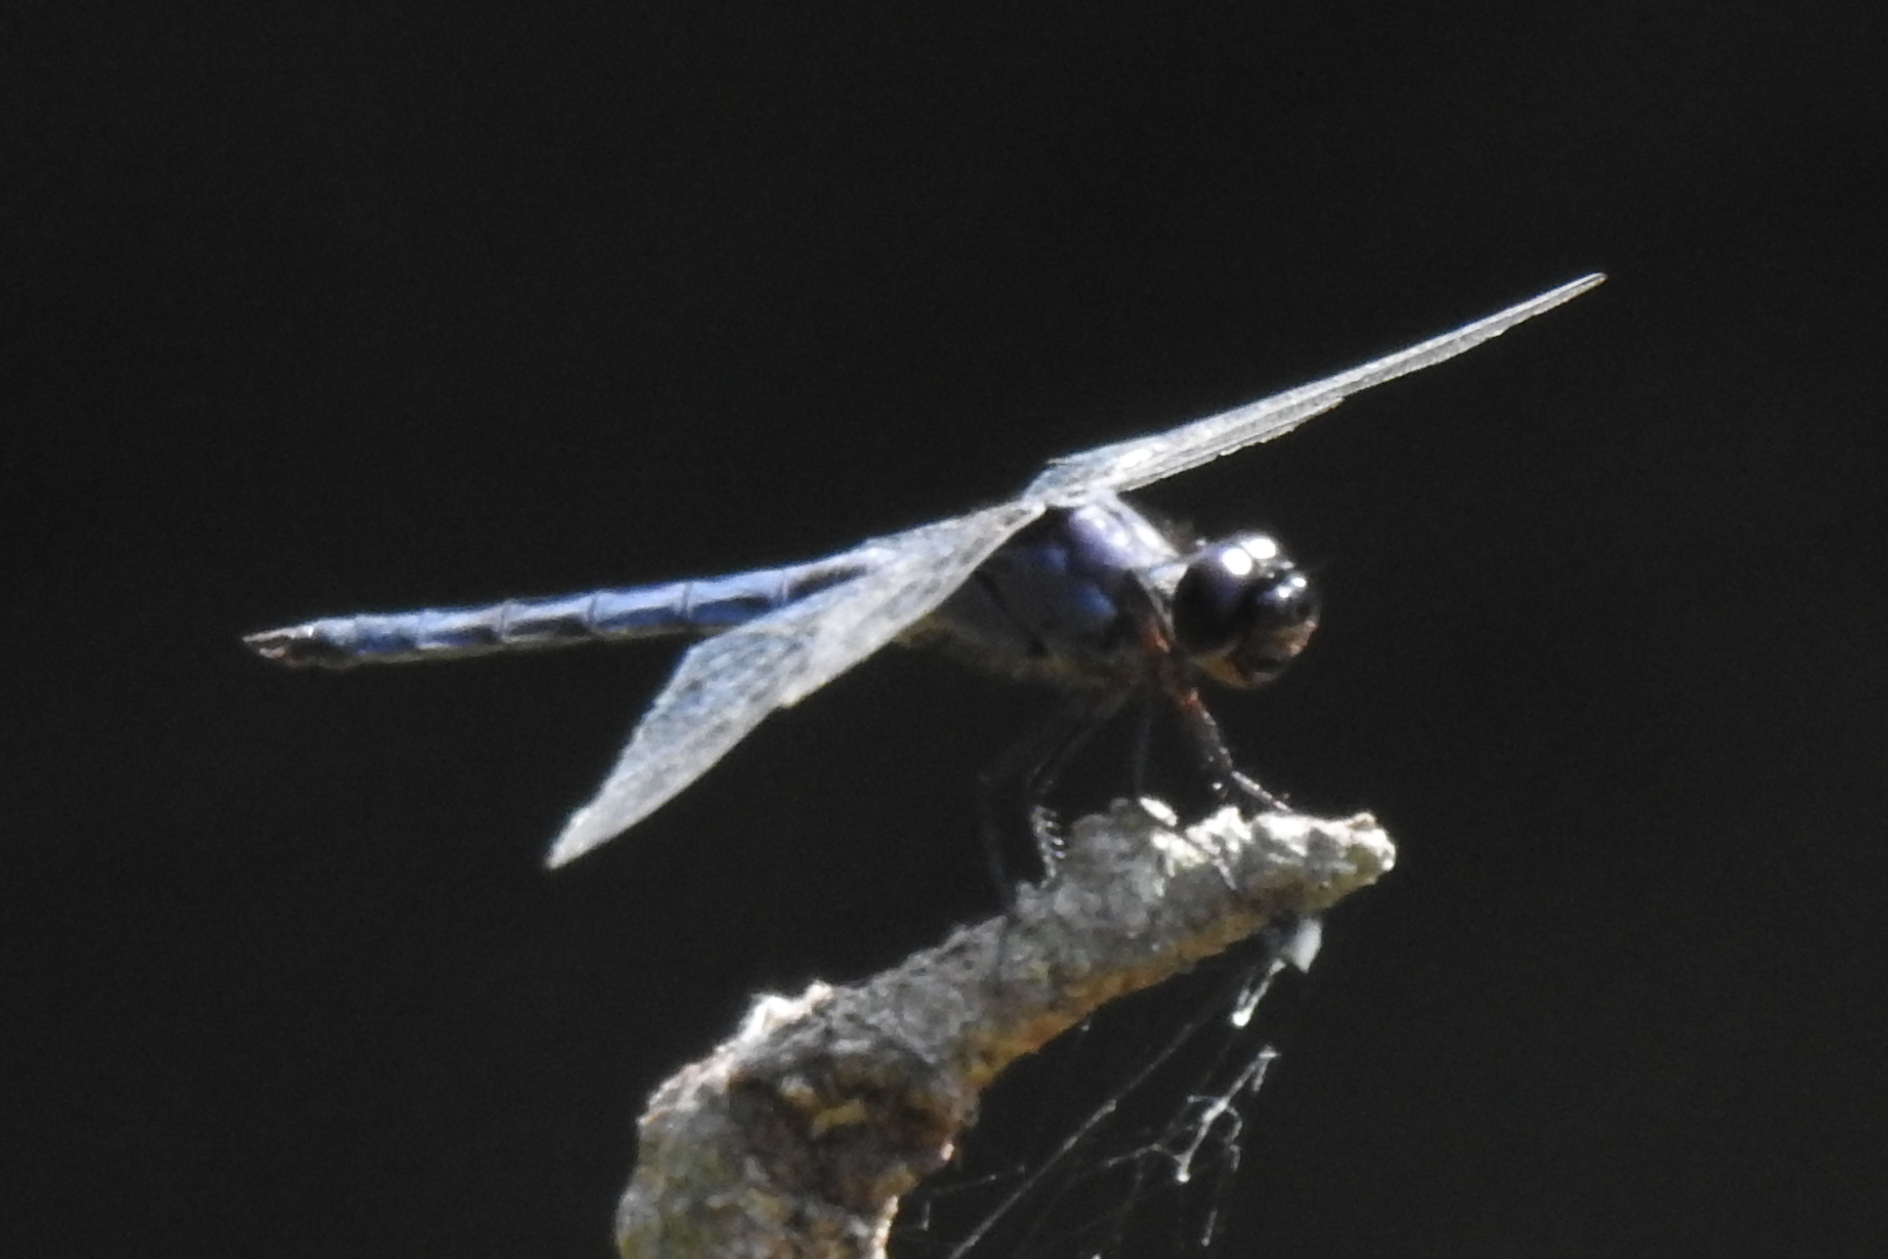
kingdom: Animalia
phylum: Arthropoda
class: Insecta
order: Odonata
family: Libellulidae
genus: Libellula
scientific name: Libellula incesta
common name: Slaty skimmer
